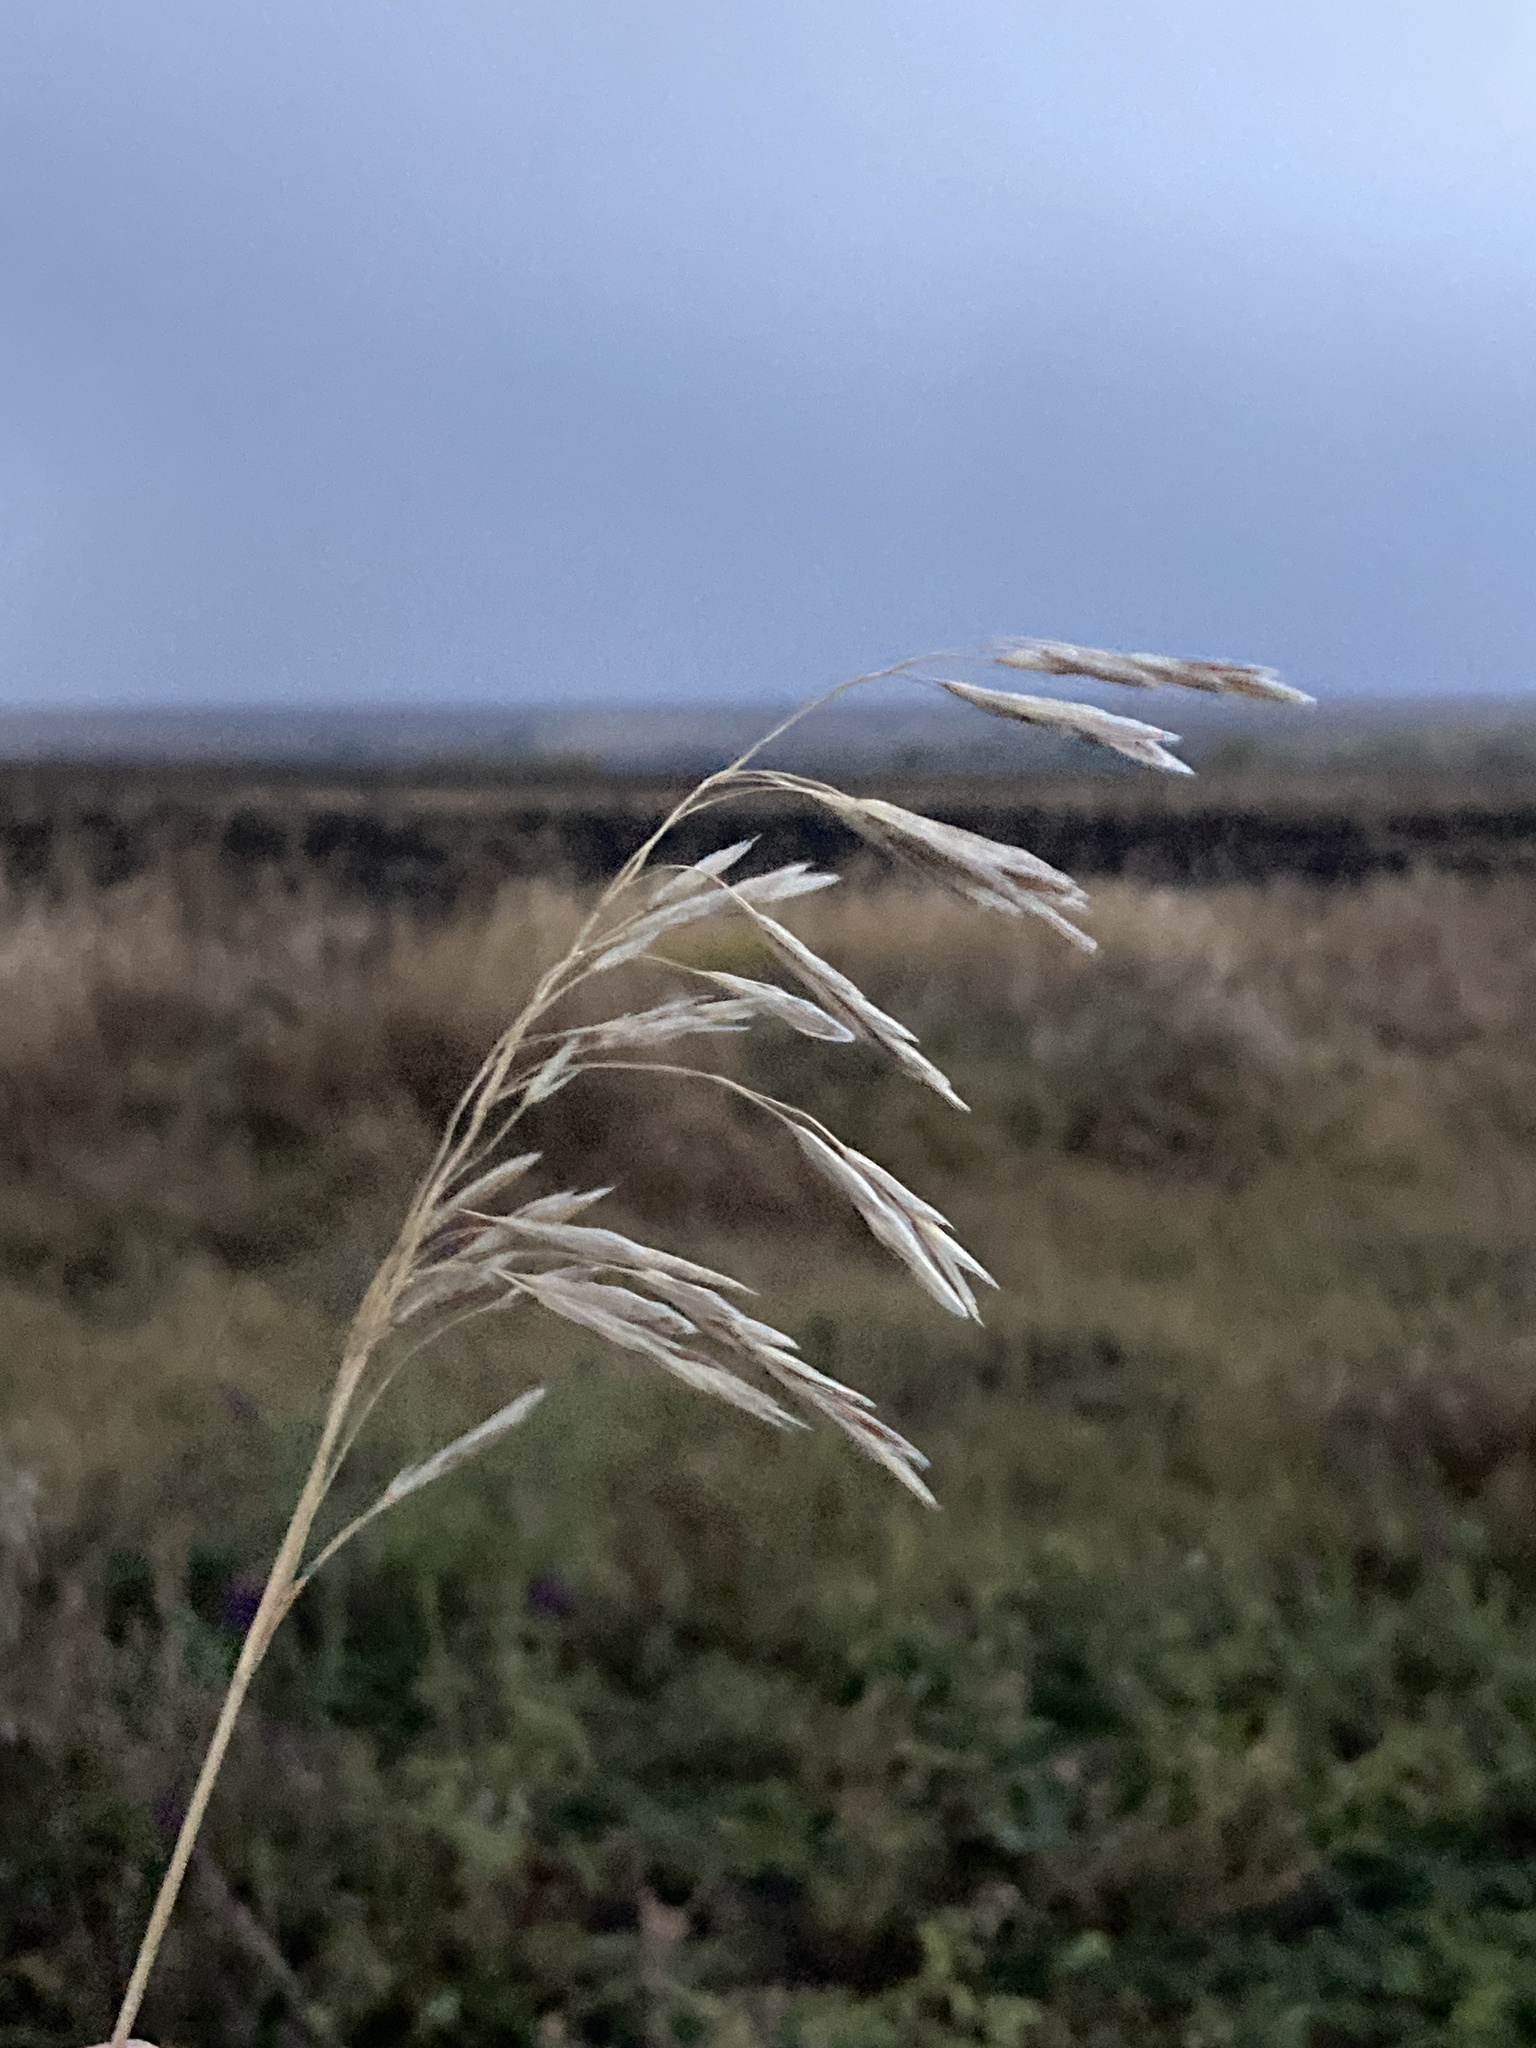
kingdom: Plantae
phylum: Tracheophyta
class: Liliopsida
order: Poales
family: Poaceae
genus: Bromus
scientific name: Bromus inermis
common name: Smooth brome
